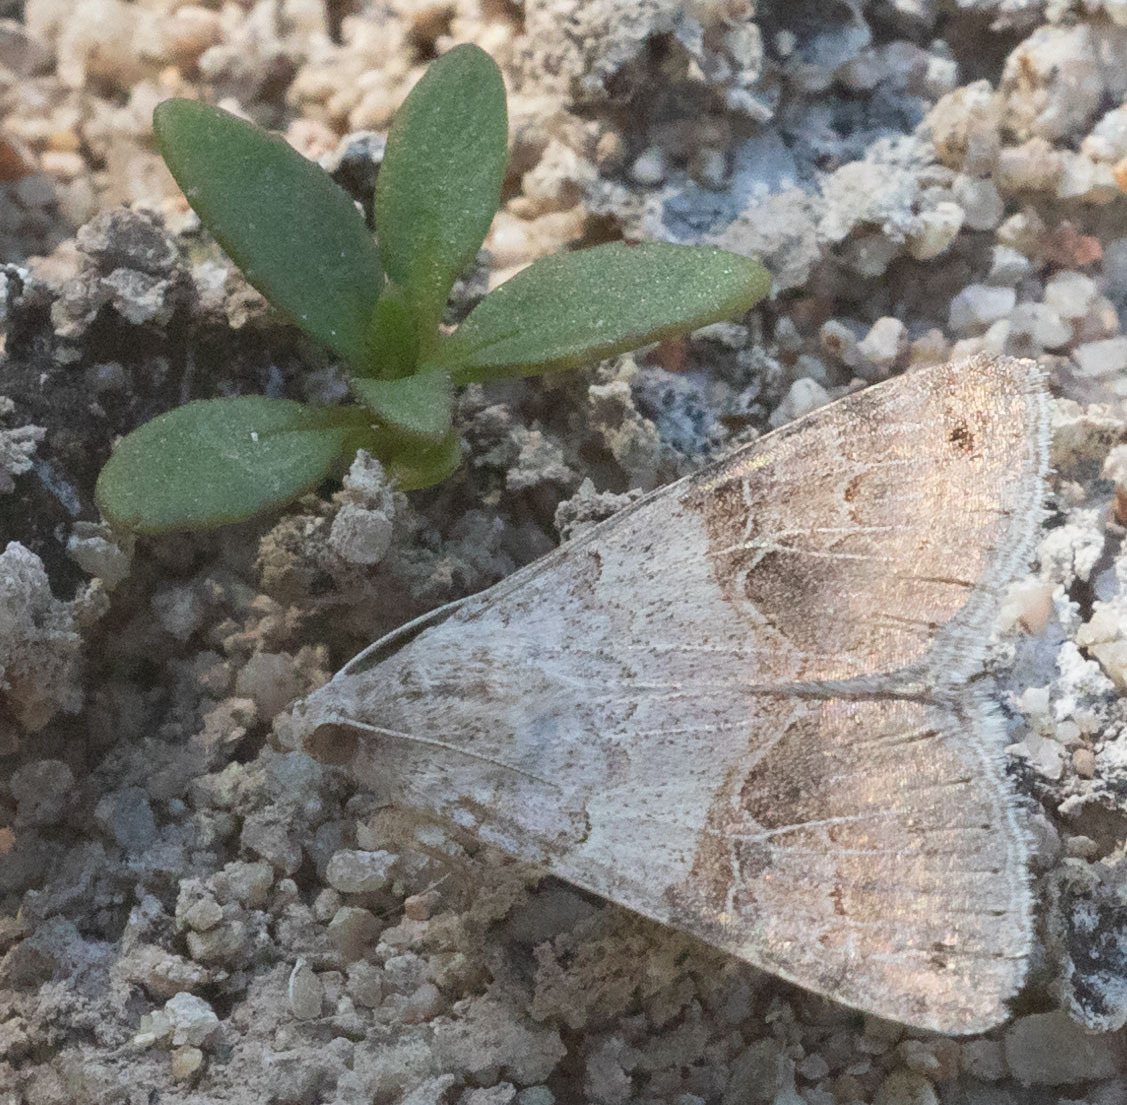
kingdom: Animalia
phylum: Arthropoda
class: Insecta
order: Lepidoptera
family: Erebidae
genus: Drasteria
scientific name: Drasteria scrupulosa
